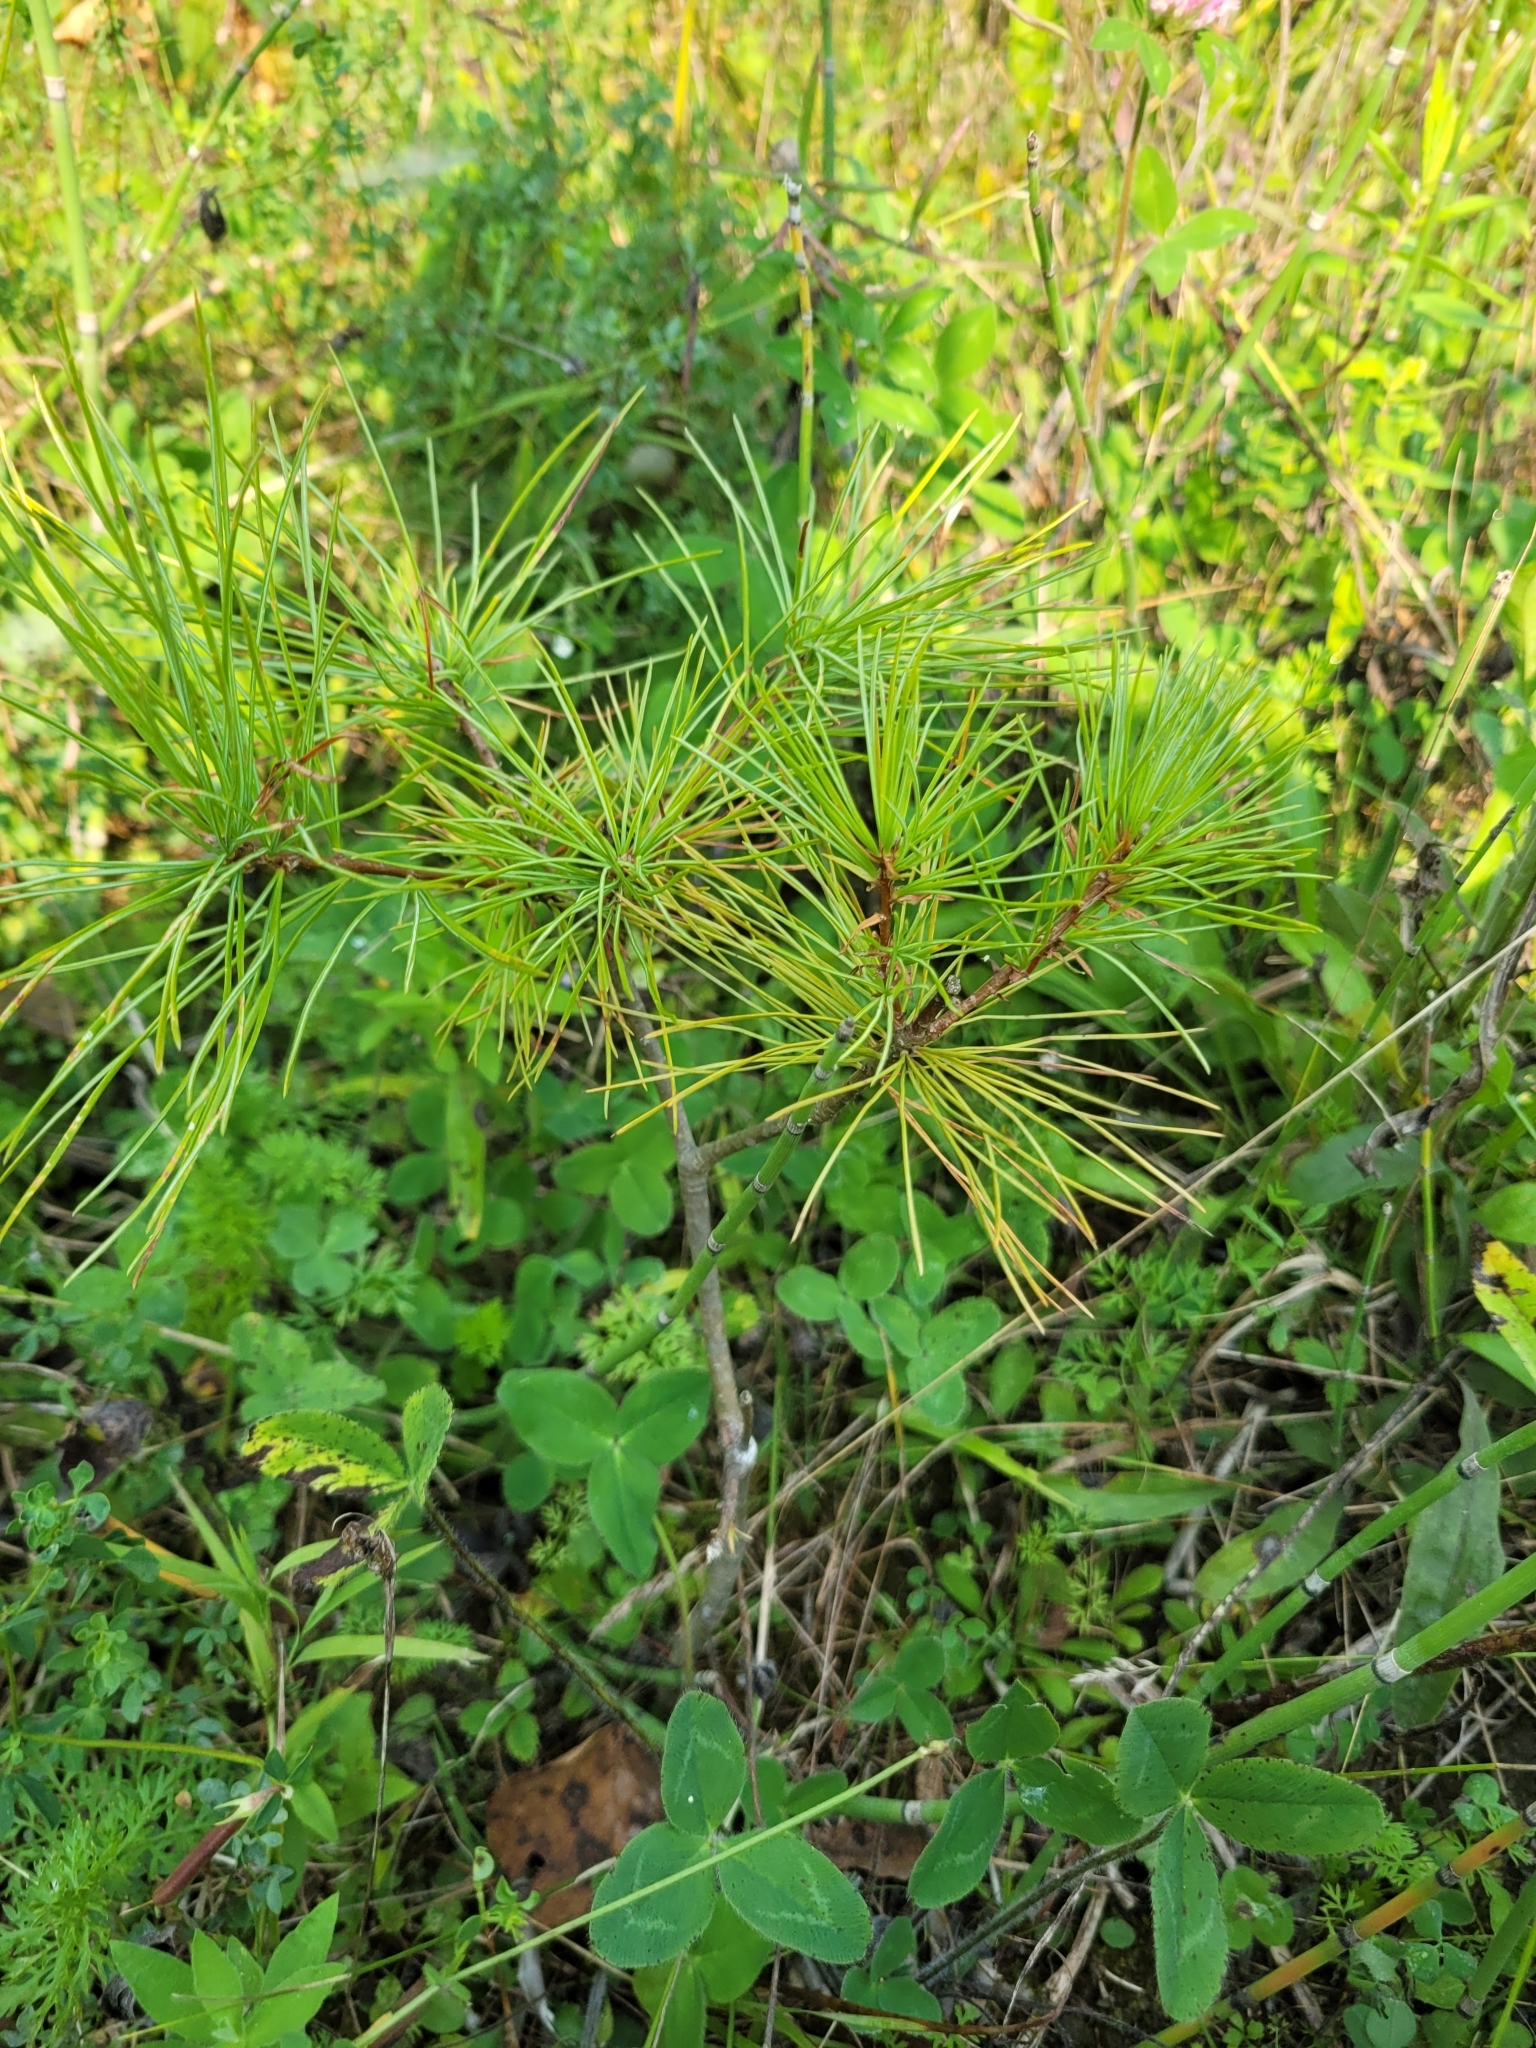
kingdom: Plantae
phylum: Tracheophyta
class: Pinopsida
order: Pinales
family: Pinaceae
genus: Pinus
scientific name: Pinus strobus
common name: Weymouth pine
